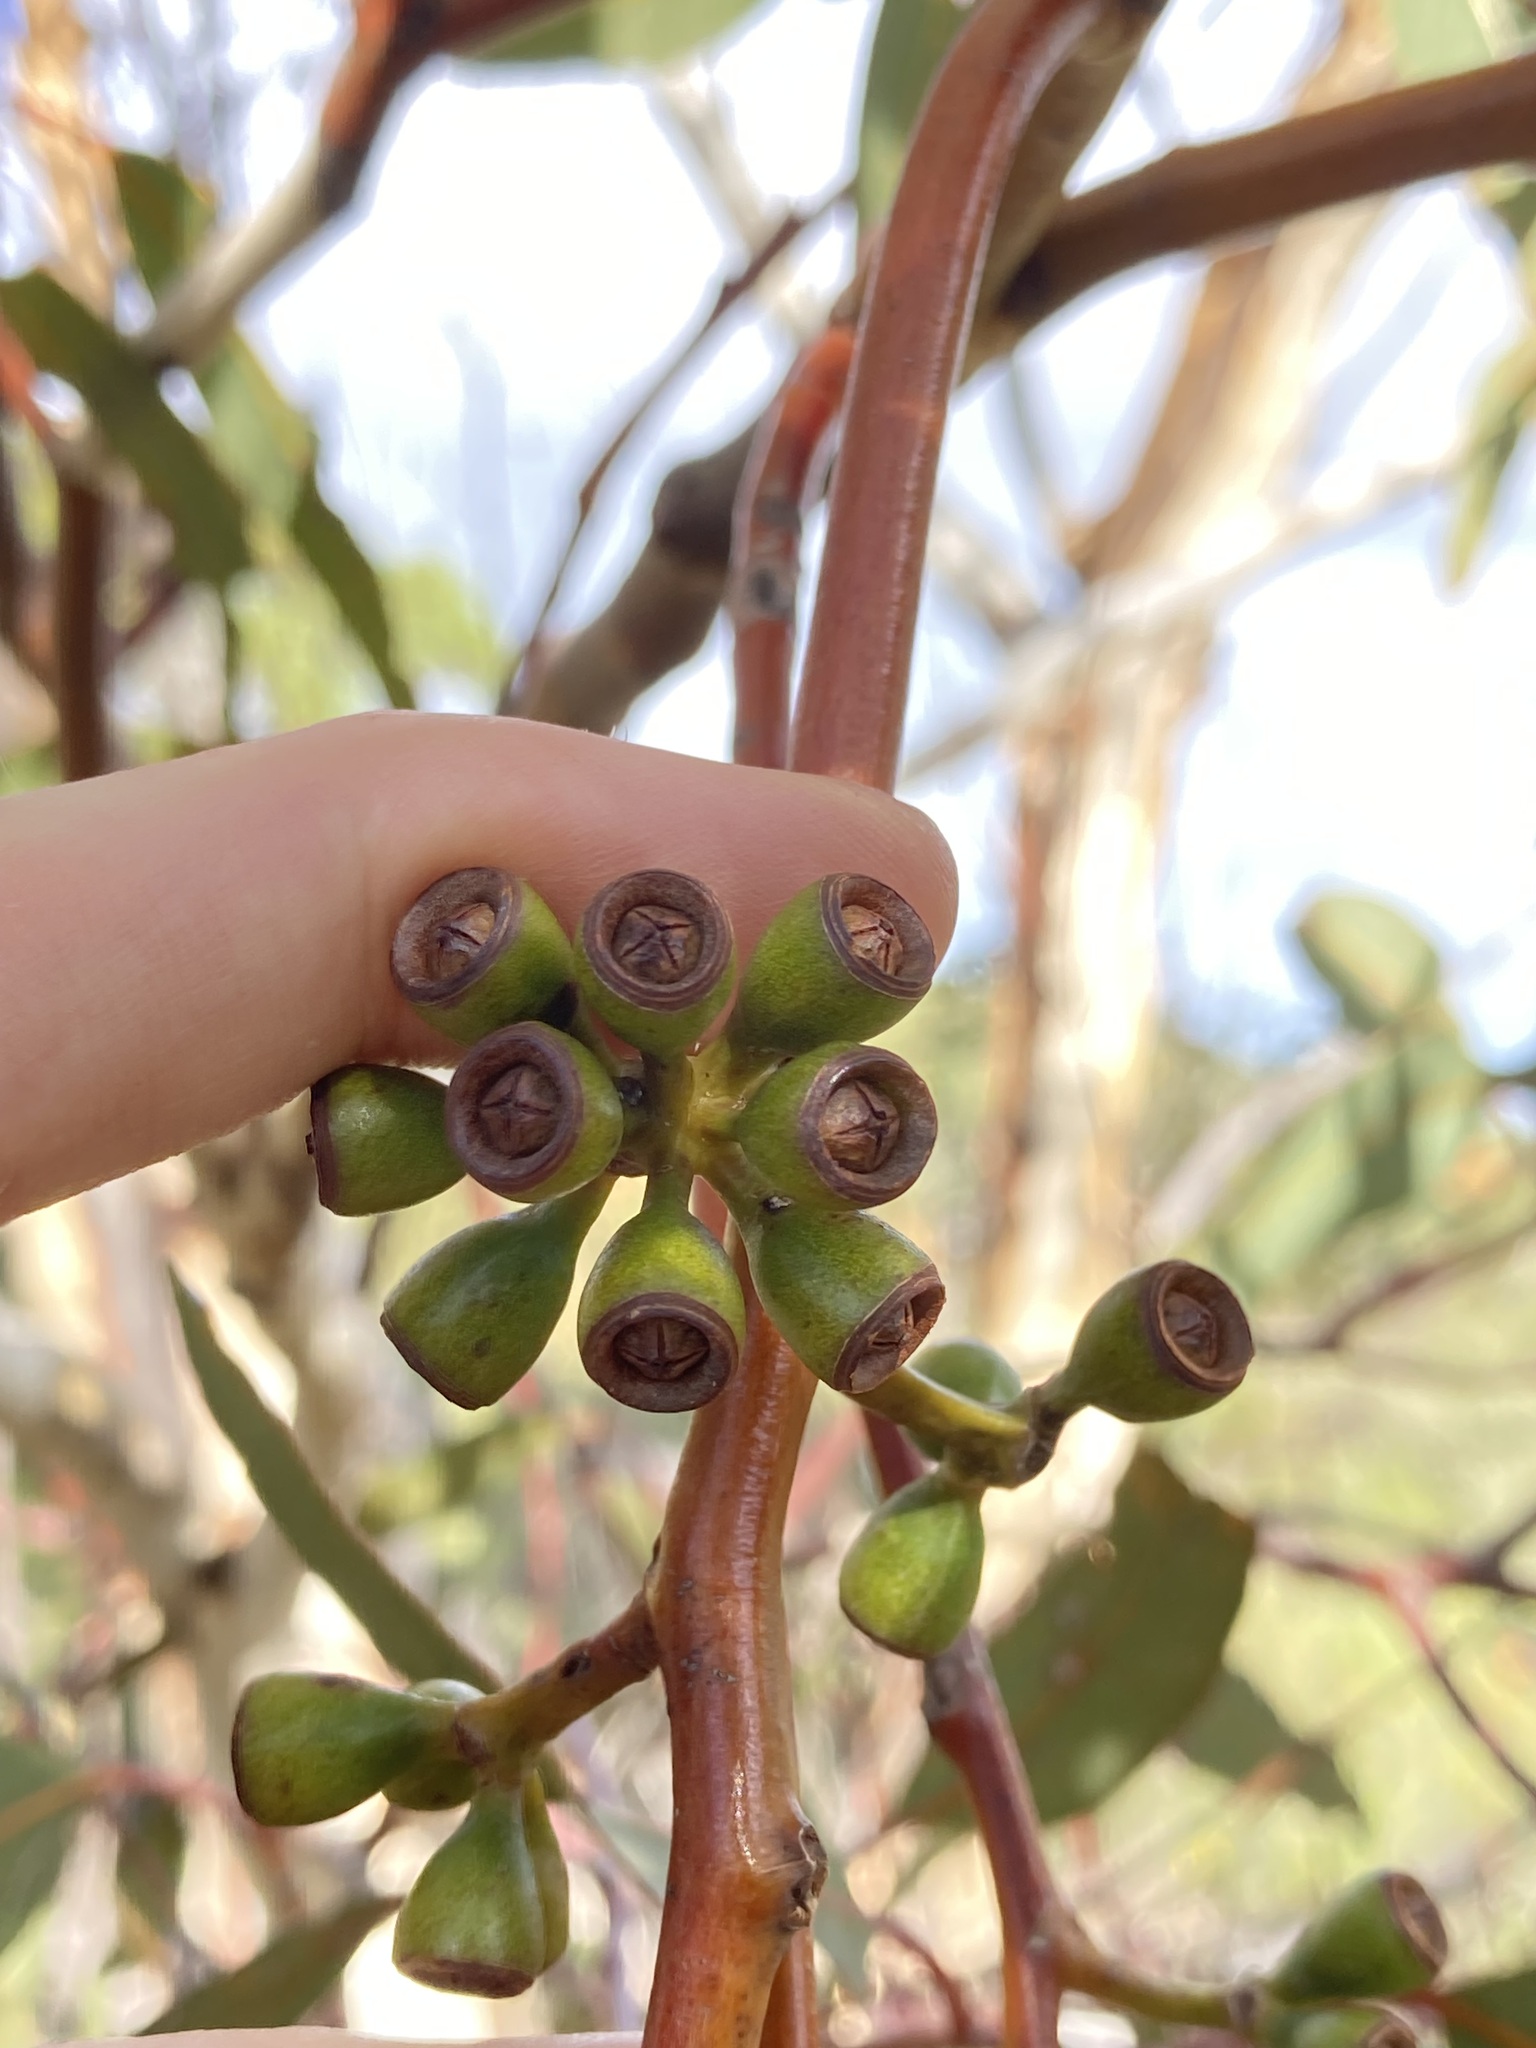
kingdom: Plantae
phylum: Tracheophyta
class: Magnoliopsida
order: Myrtales
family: Myrtaceae
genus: Eucalyptus
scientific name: Eucalyptus accedens
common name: Powder-bark wandoo
